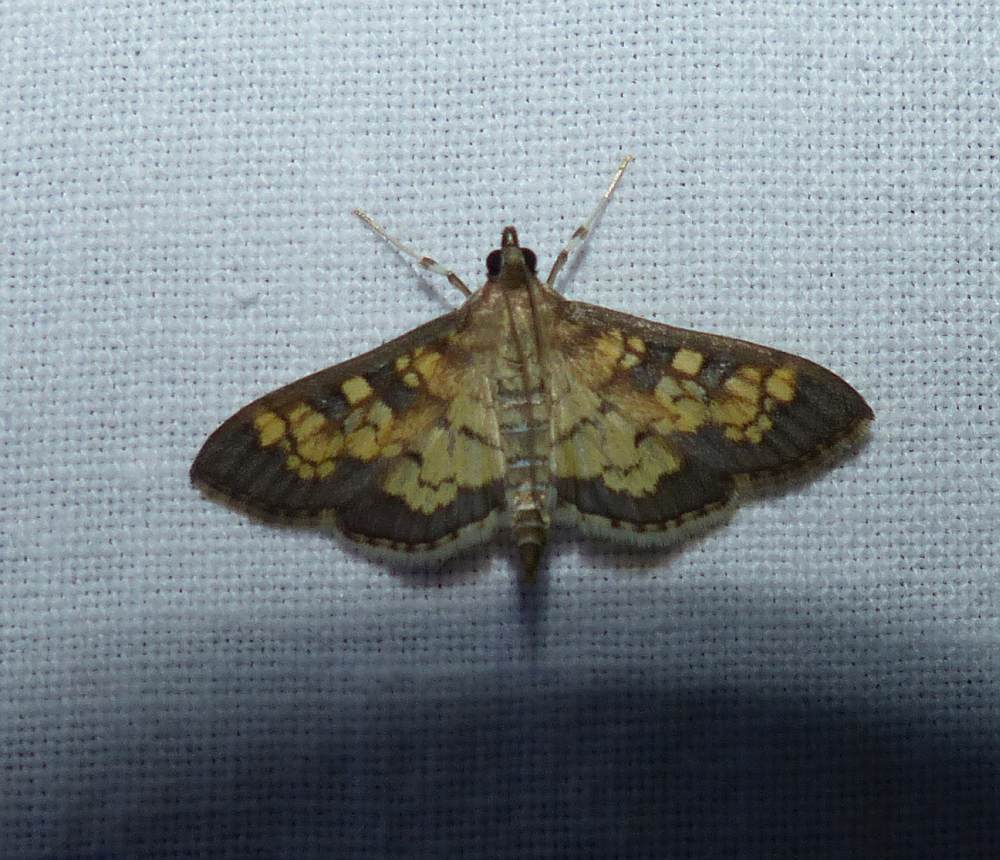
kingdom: Animalia
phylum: Arthropoda
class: Insecta
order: Lepidoptera
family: Crambidae
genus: Epipagis
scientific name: Epipagis adipaloides
